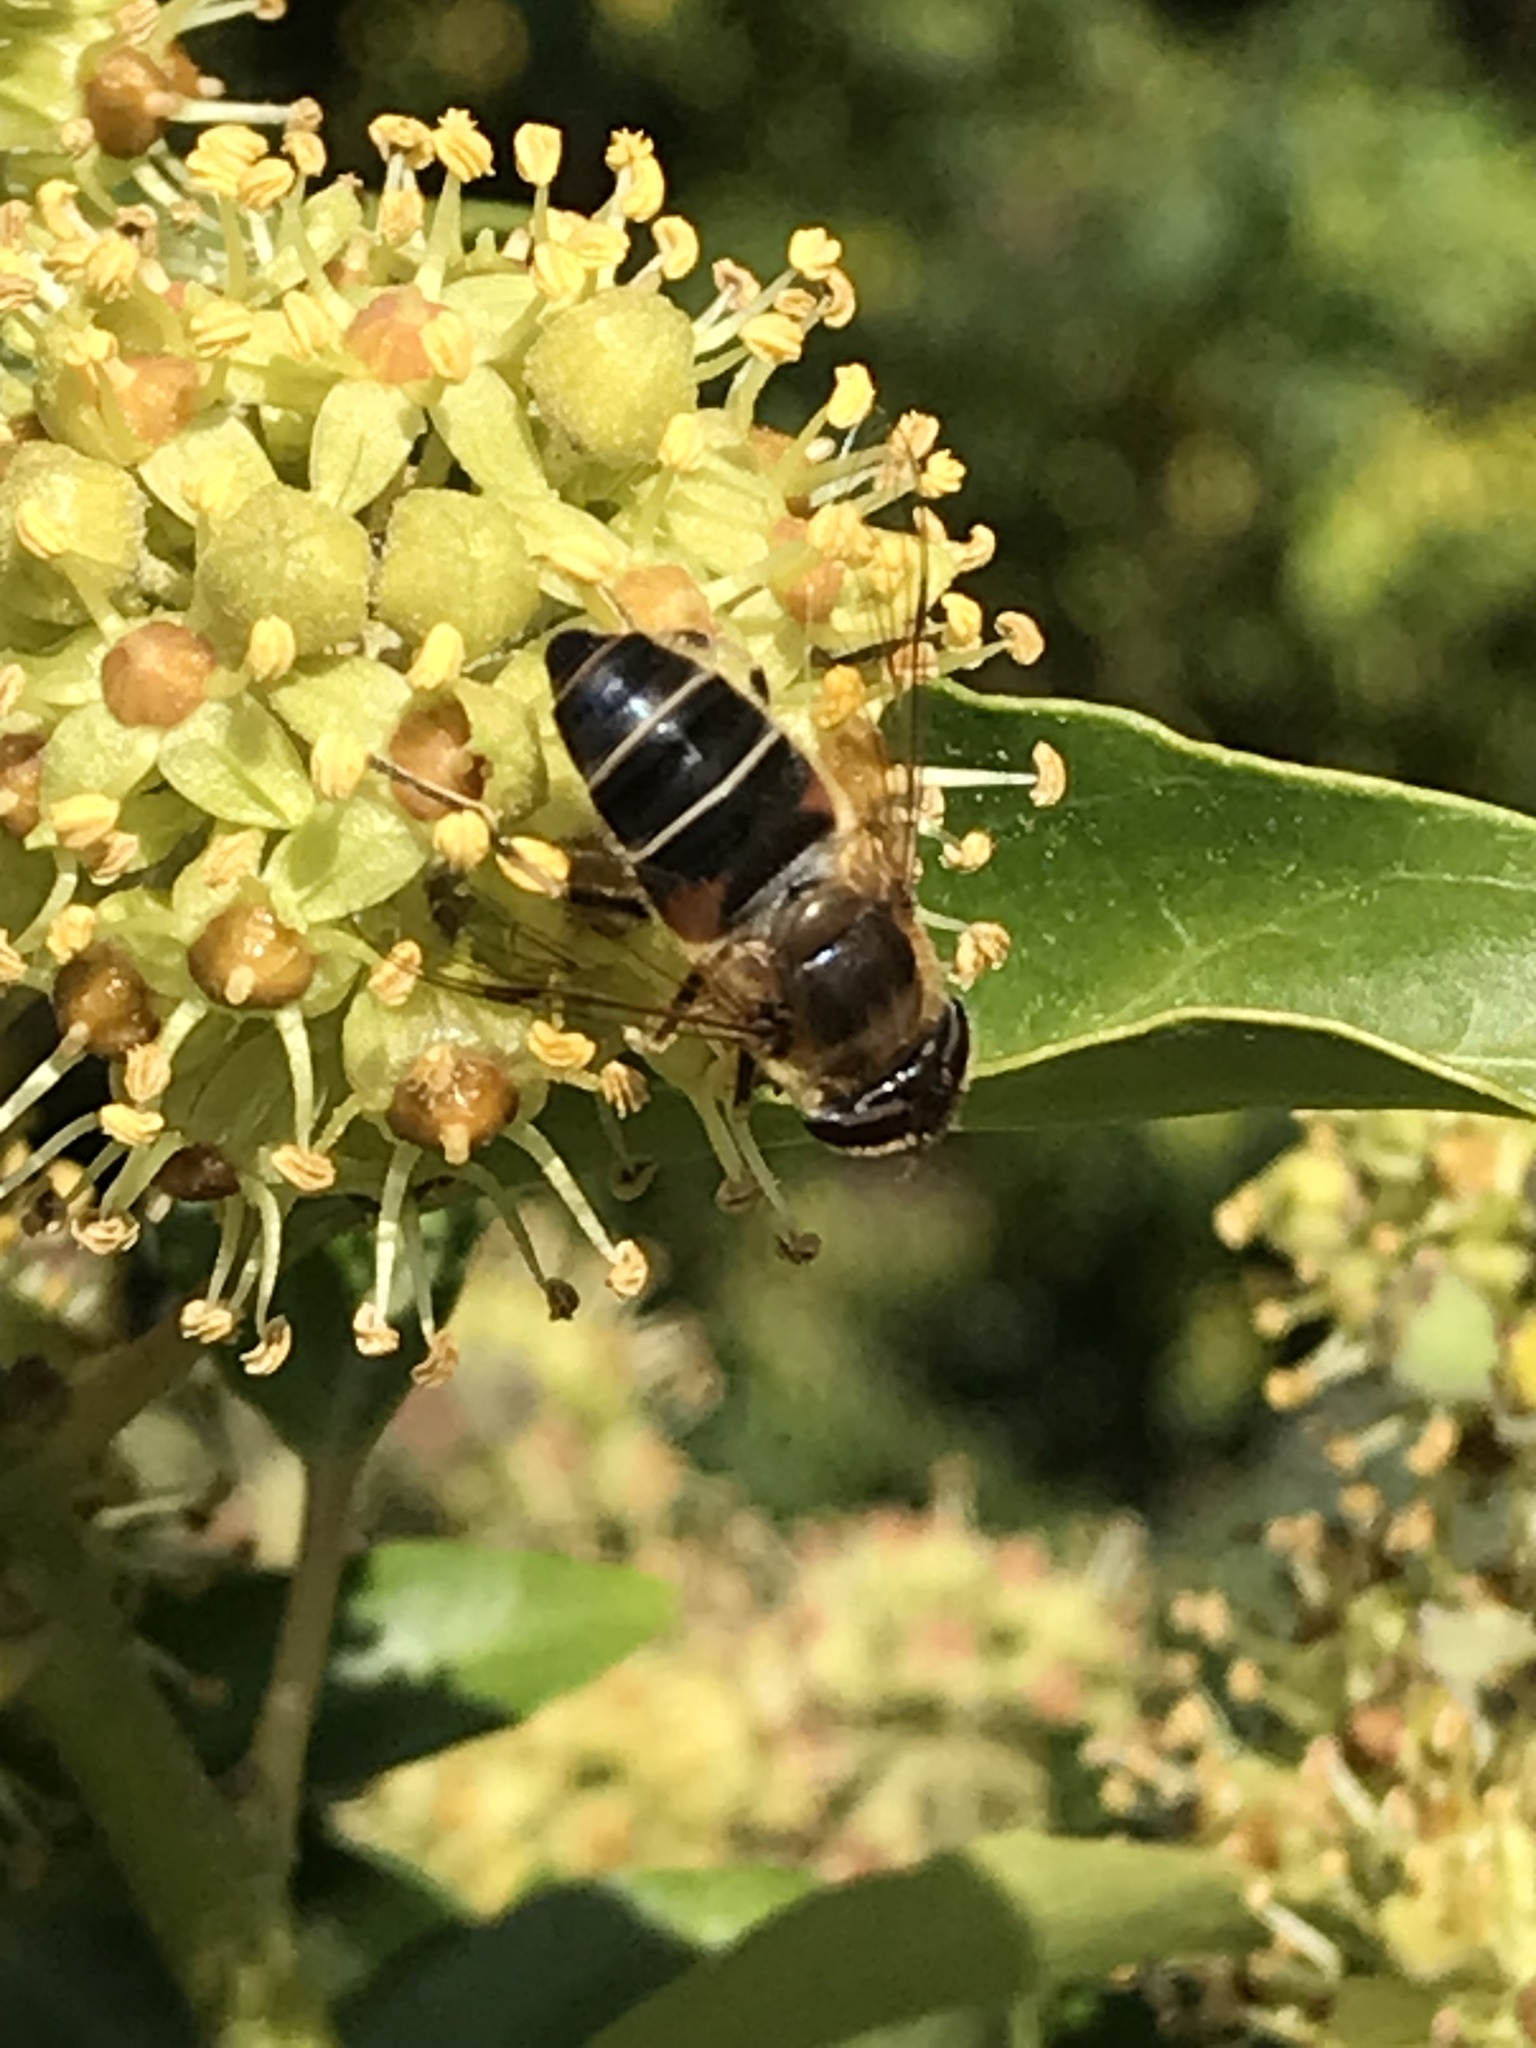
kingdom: Animalia
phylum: Arthropoda
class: Insecta
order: Diptera
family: Syrphidae
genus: Eristalis
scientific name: Eristalis pertinax
